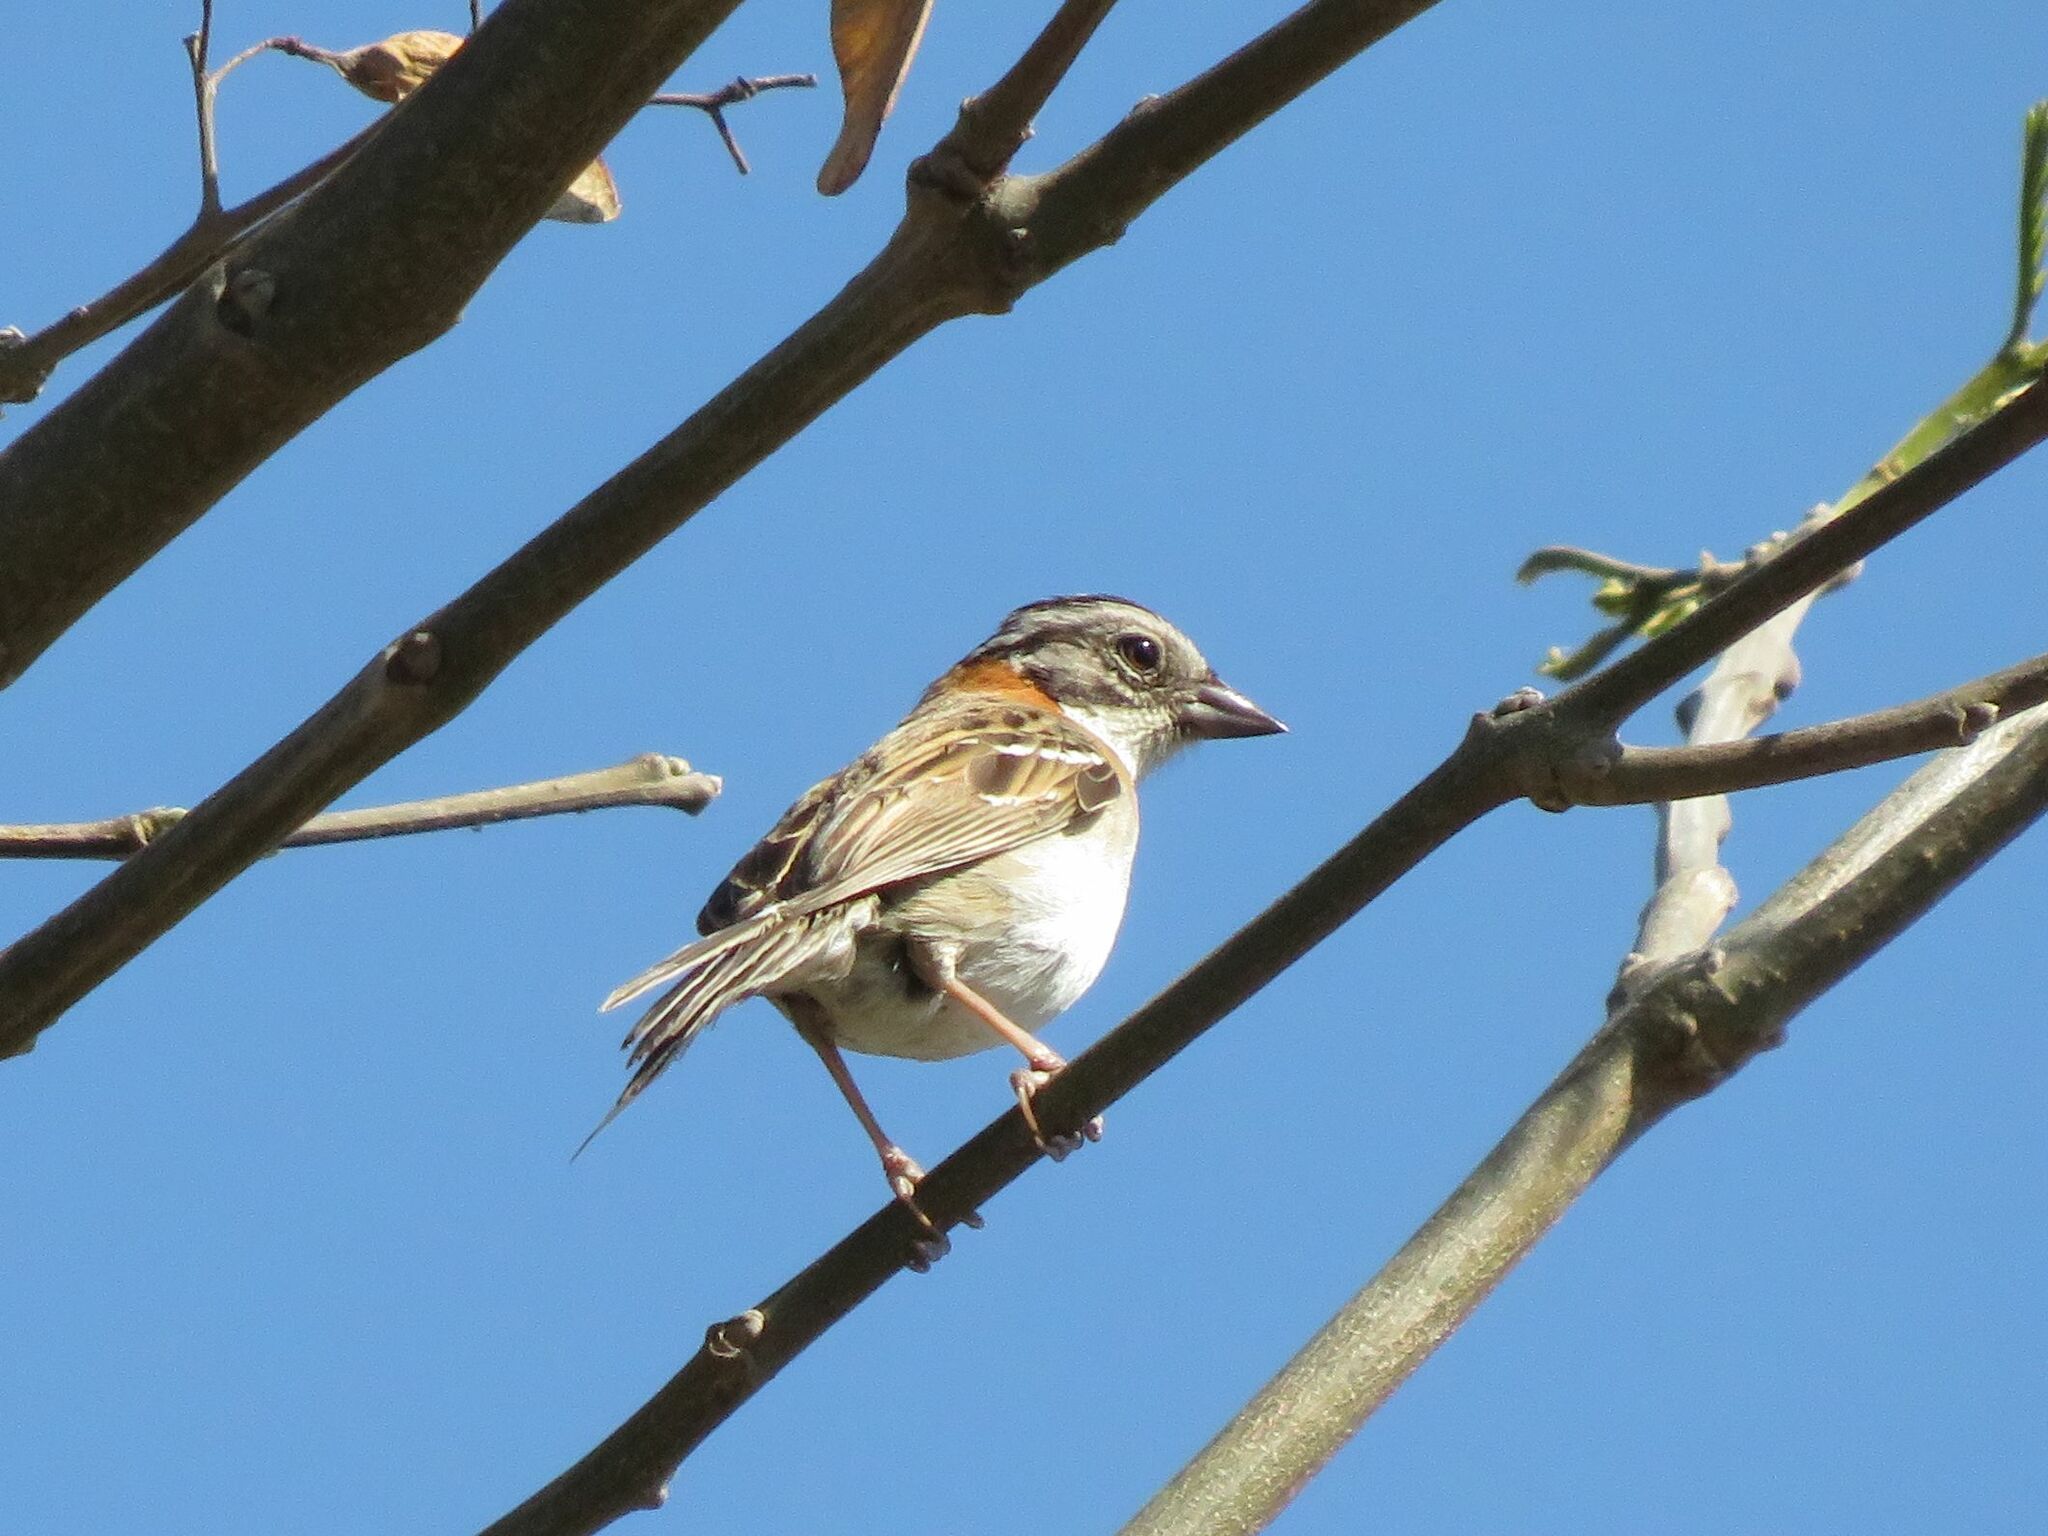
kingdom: Animalia
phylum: Chordata
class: Aves
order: Passeriformes
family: Passerellidae
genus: Zonotrichia
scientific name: Zonotrichia capensis
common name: Rufous-collared sparrow
